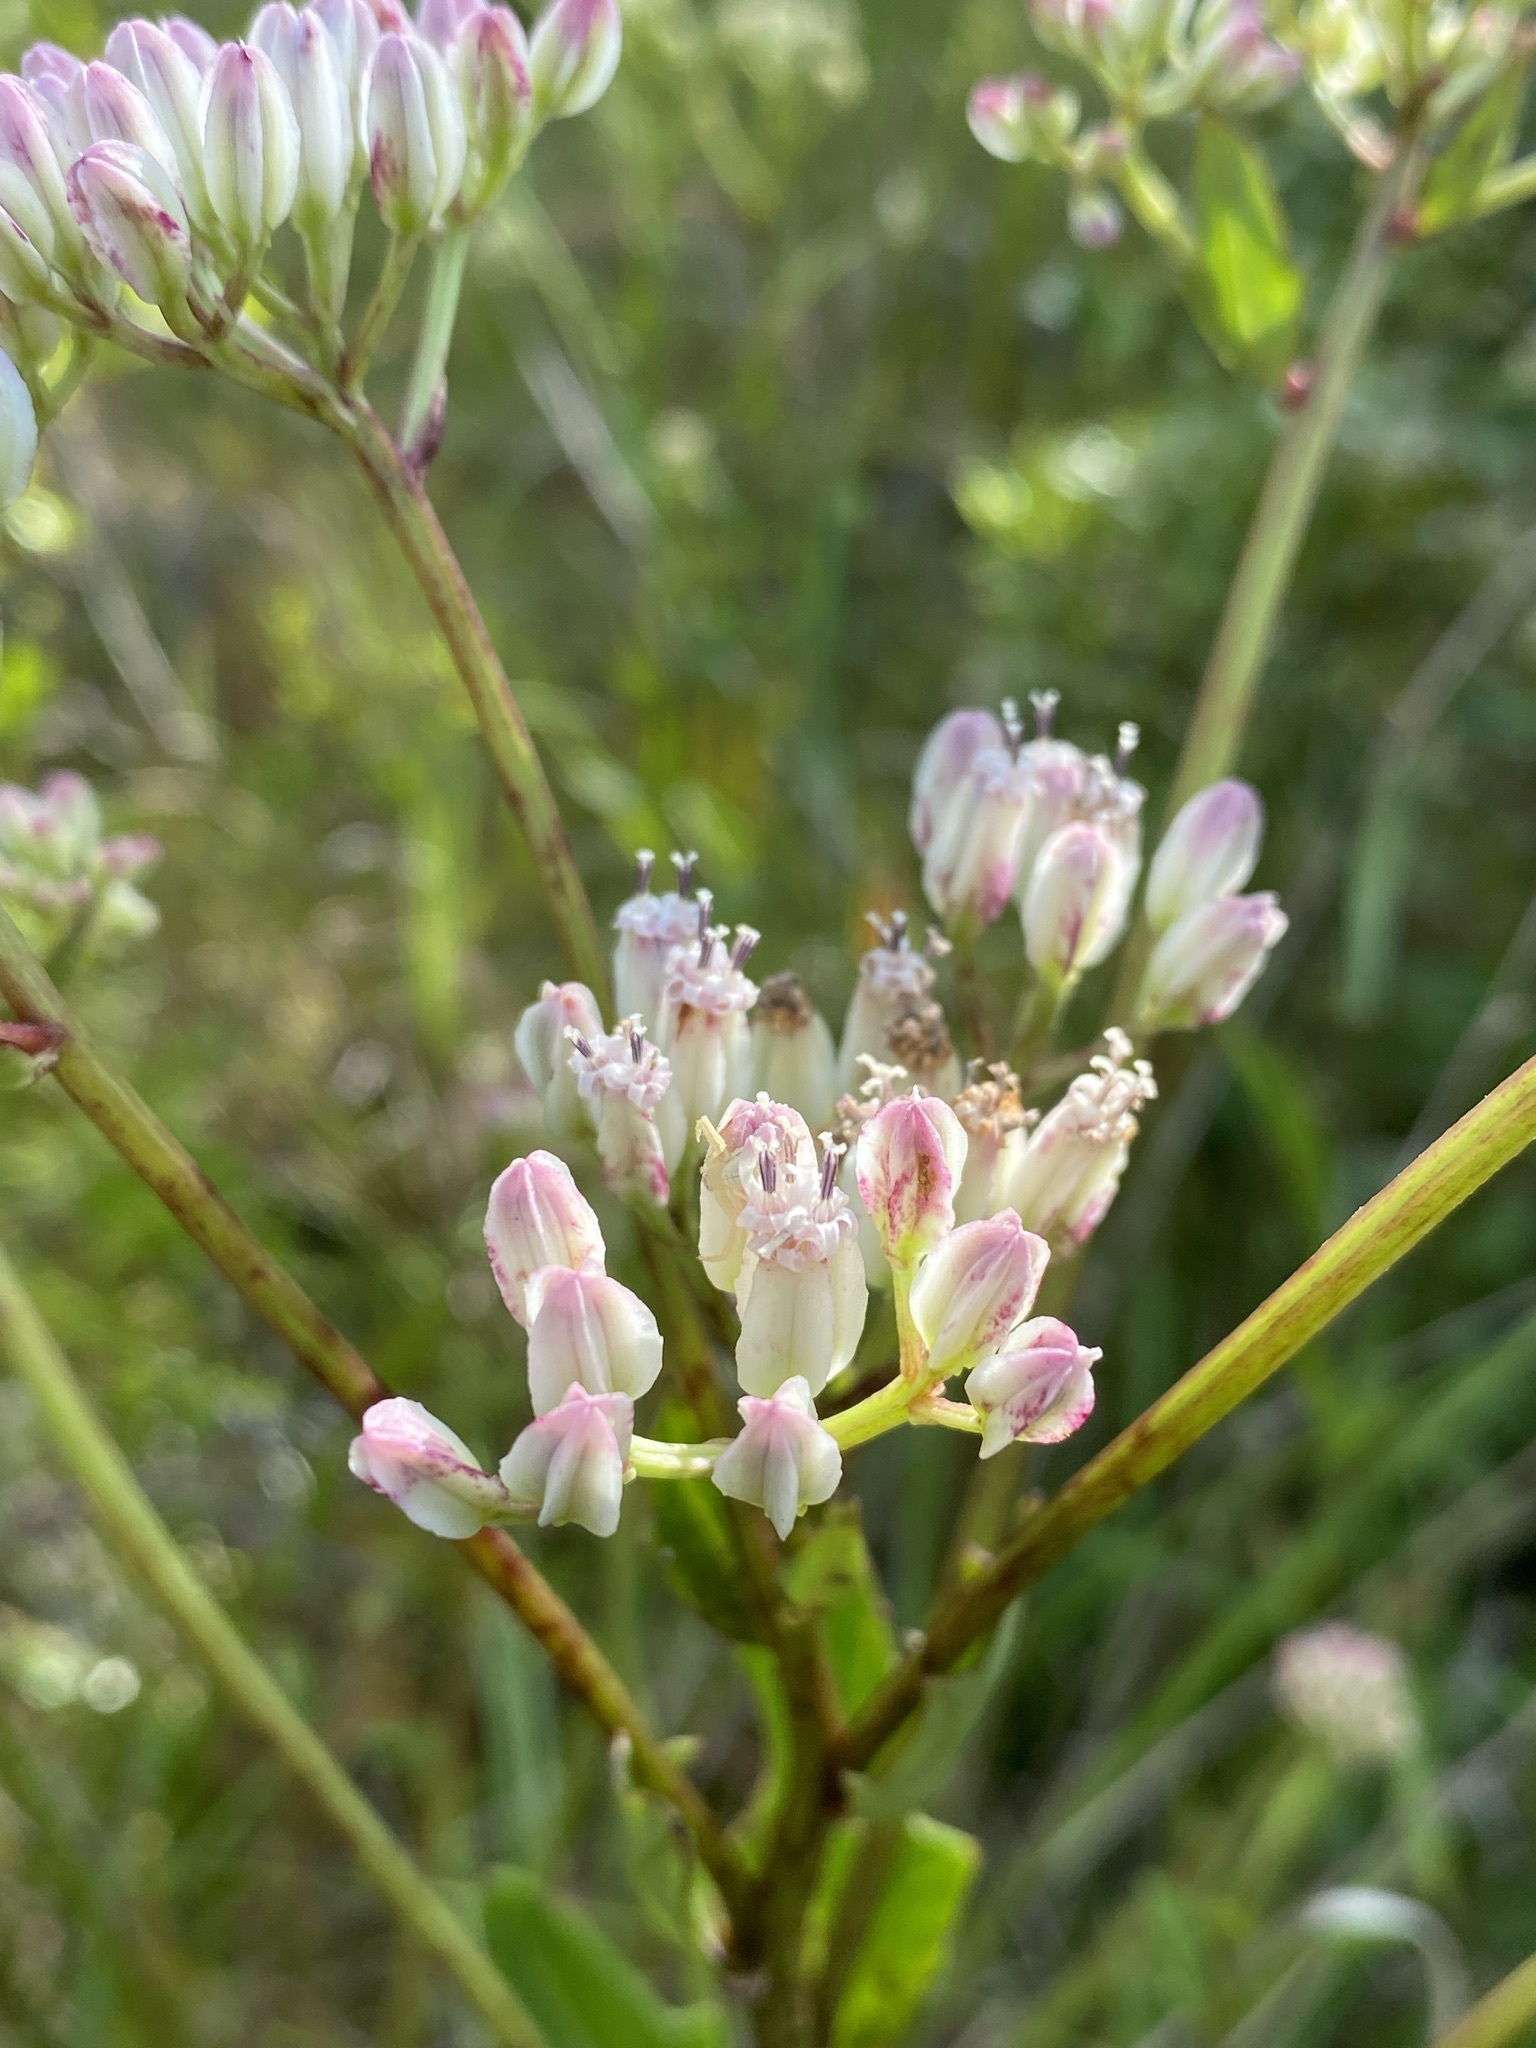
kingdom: Plantae
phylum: Tracheophyta
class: Magnoliopsida
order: Asterales
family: Asteraceae
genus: Arnoglossum
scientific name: Arnoglossum sulcatum
